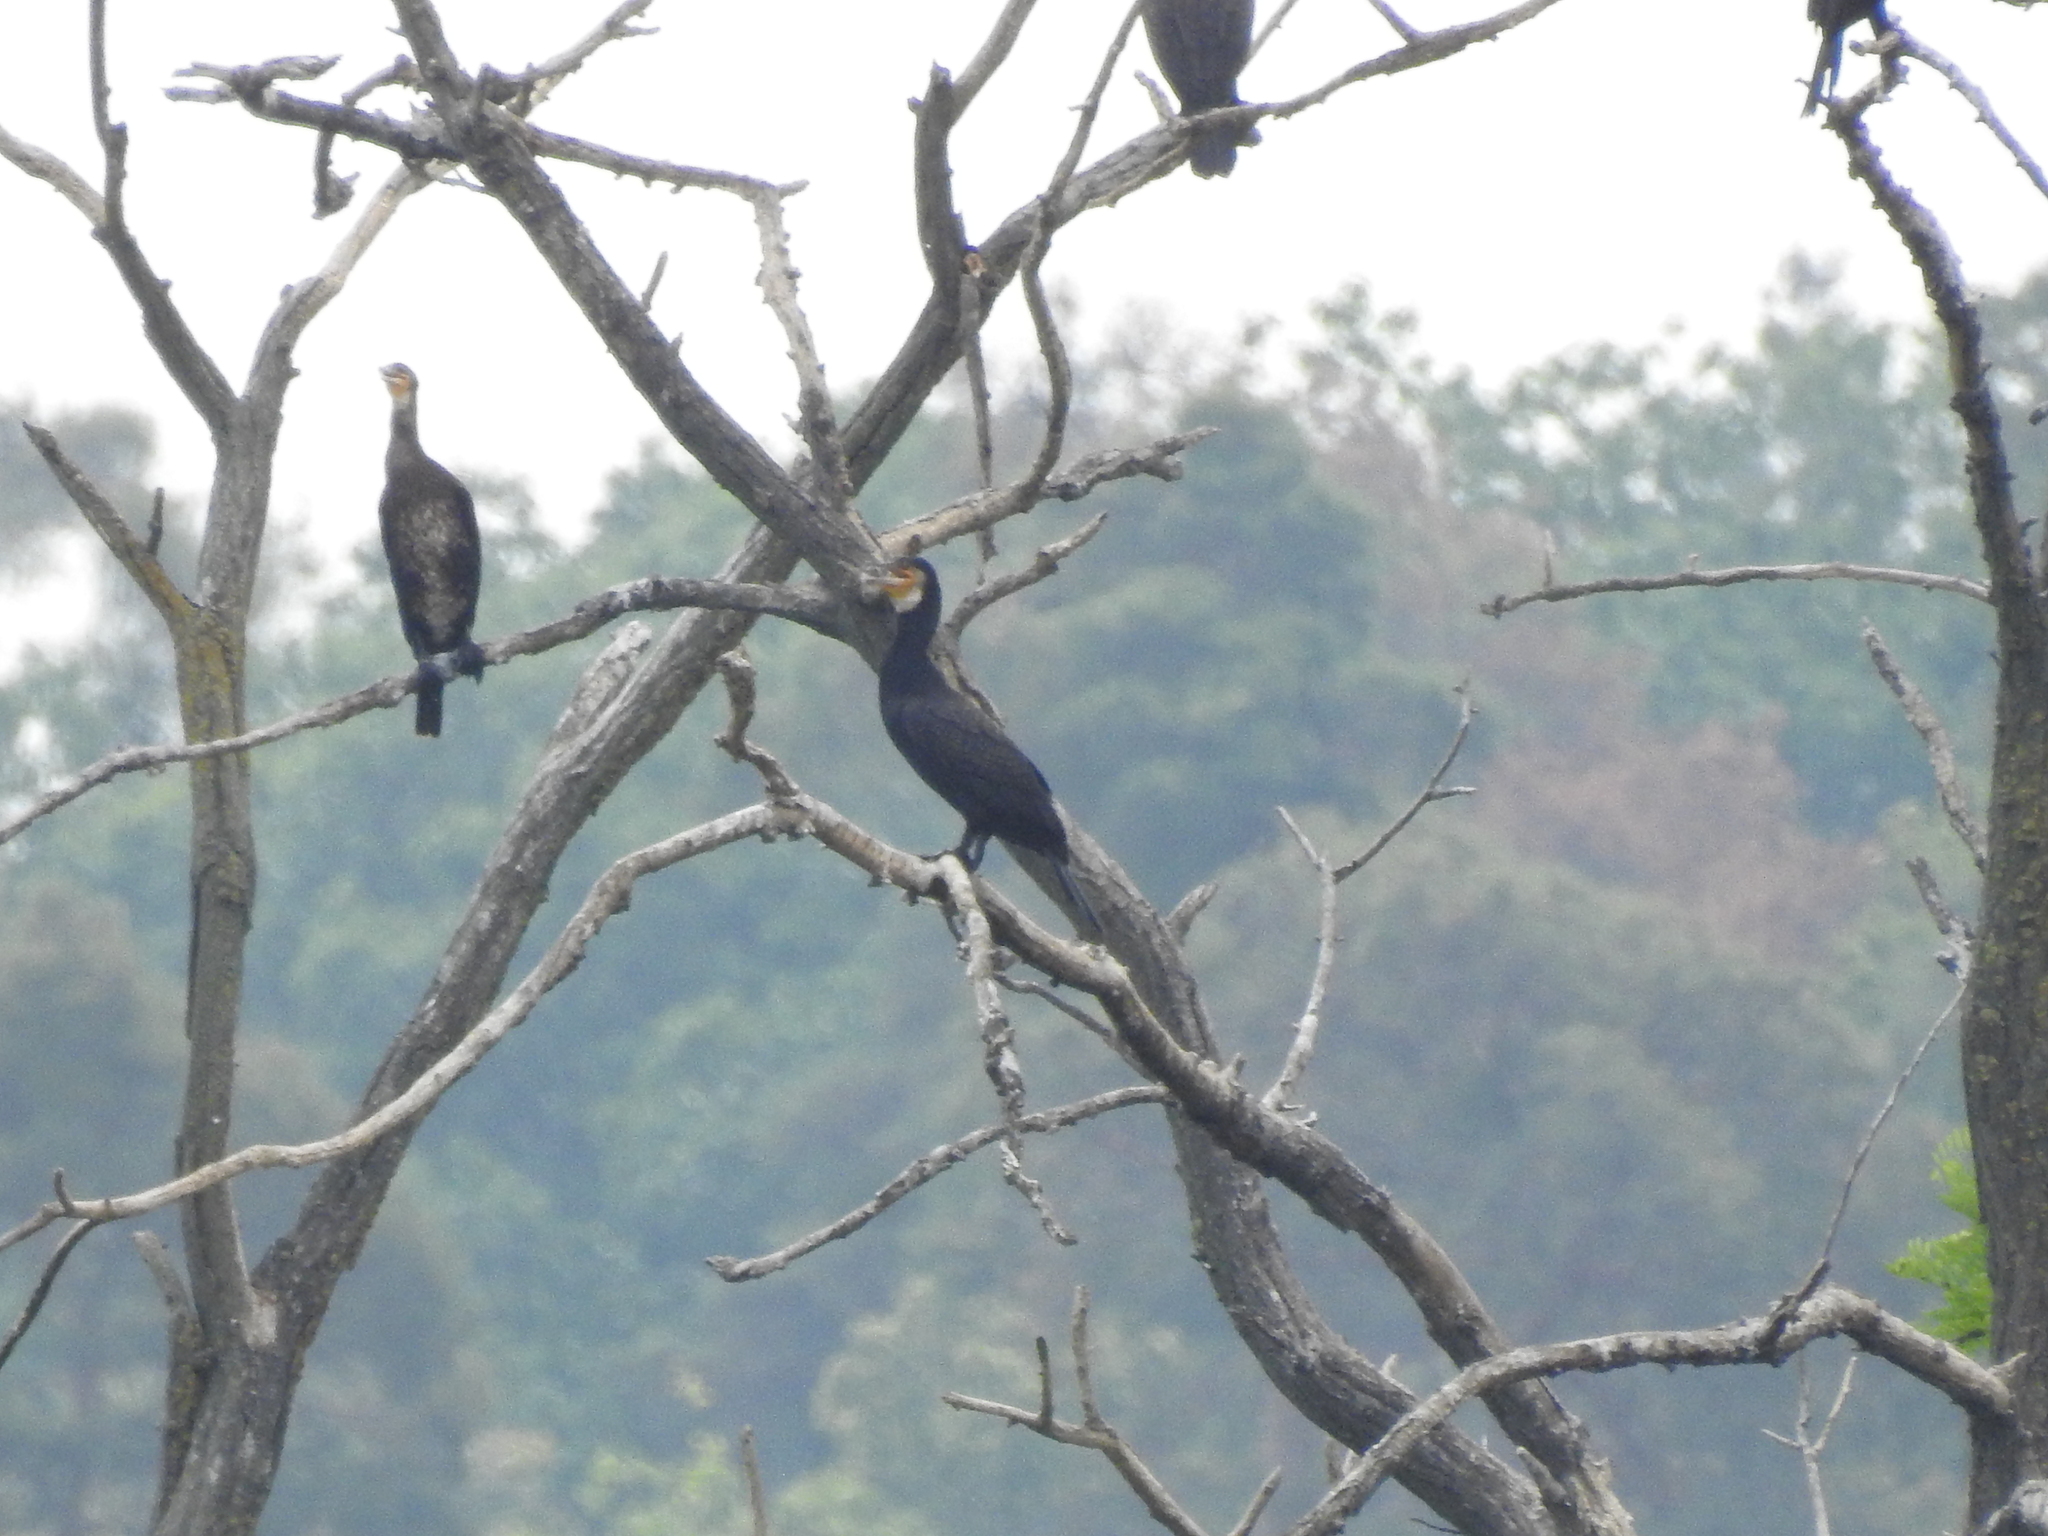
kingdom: Animalia
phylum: Chordata
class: Aves
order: Suliformes
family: Phalacrocoracidae
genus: Phalacrocorax
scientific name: Phalacrocorax carbo
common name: Great cormorant
